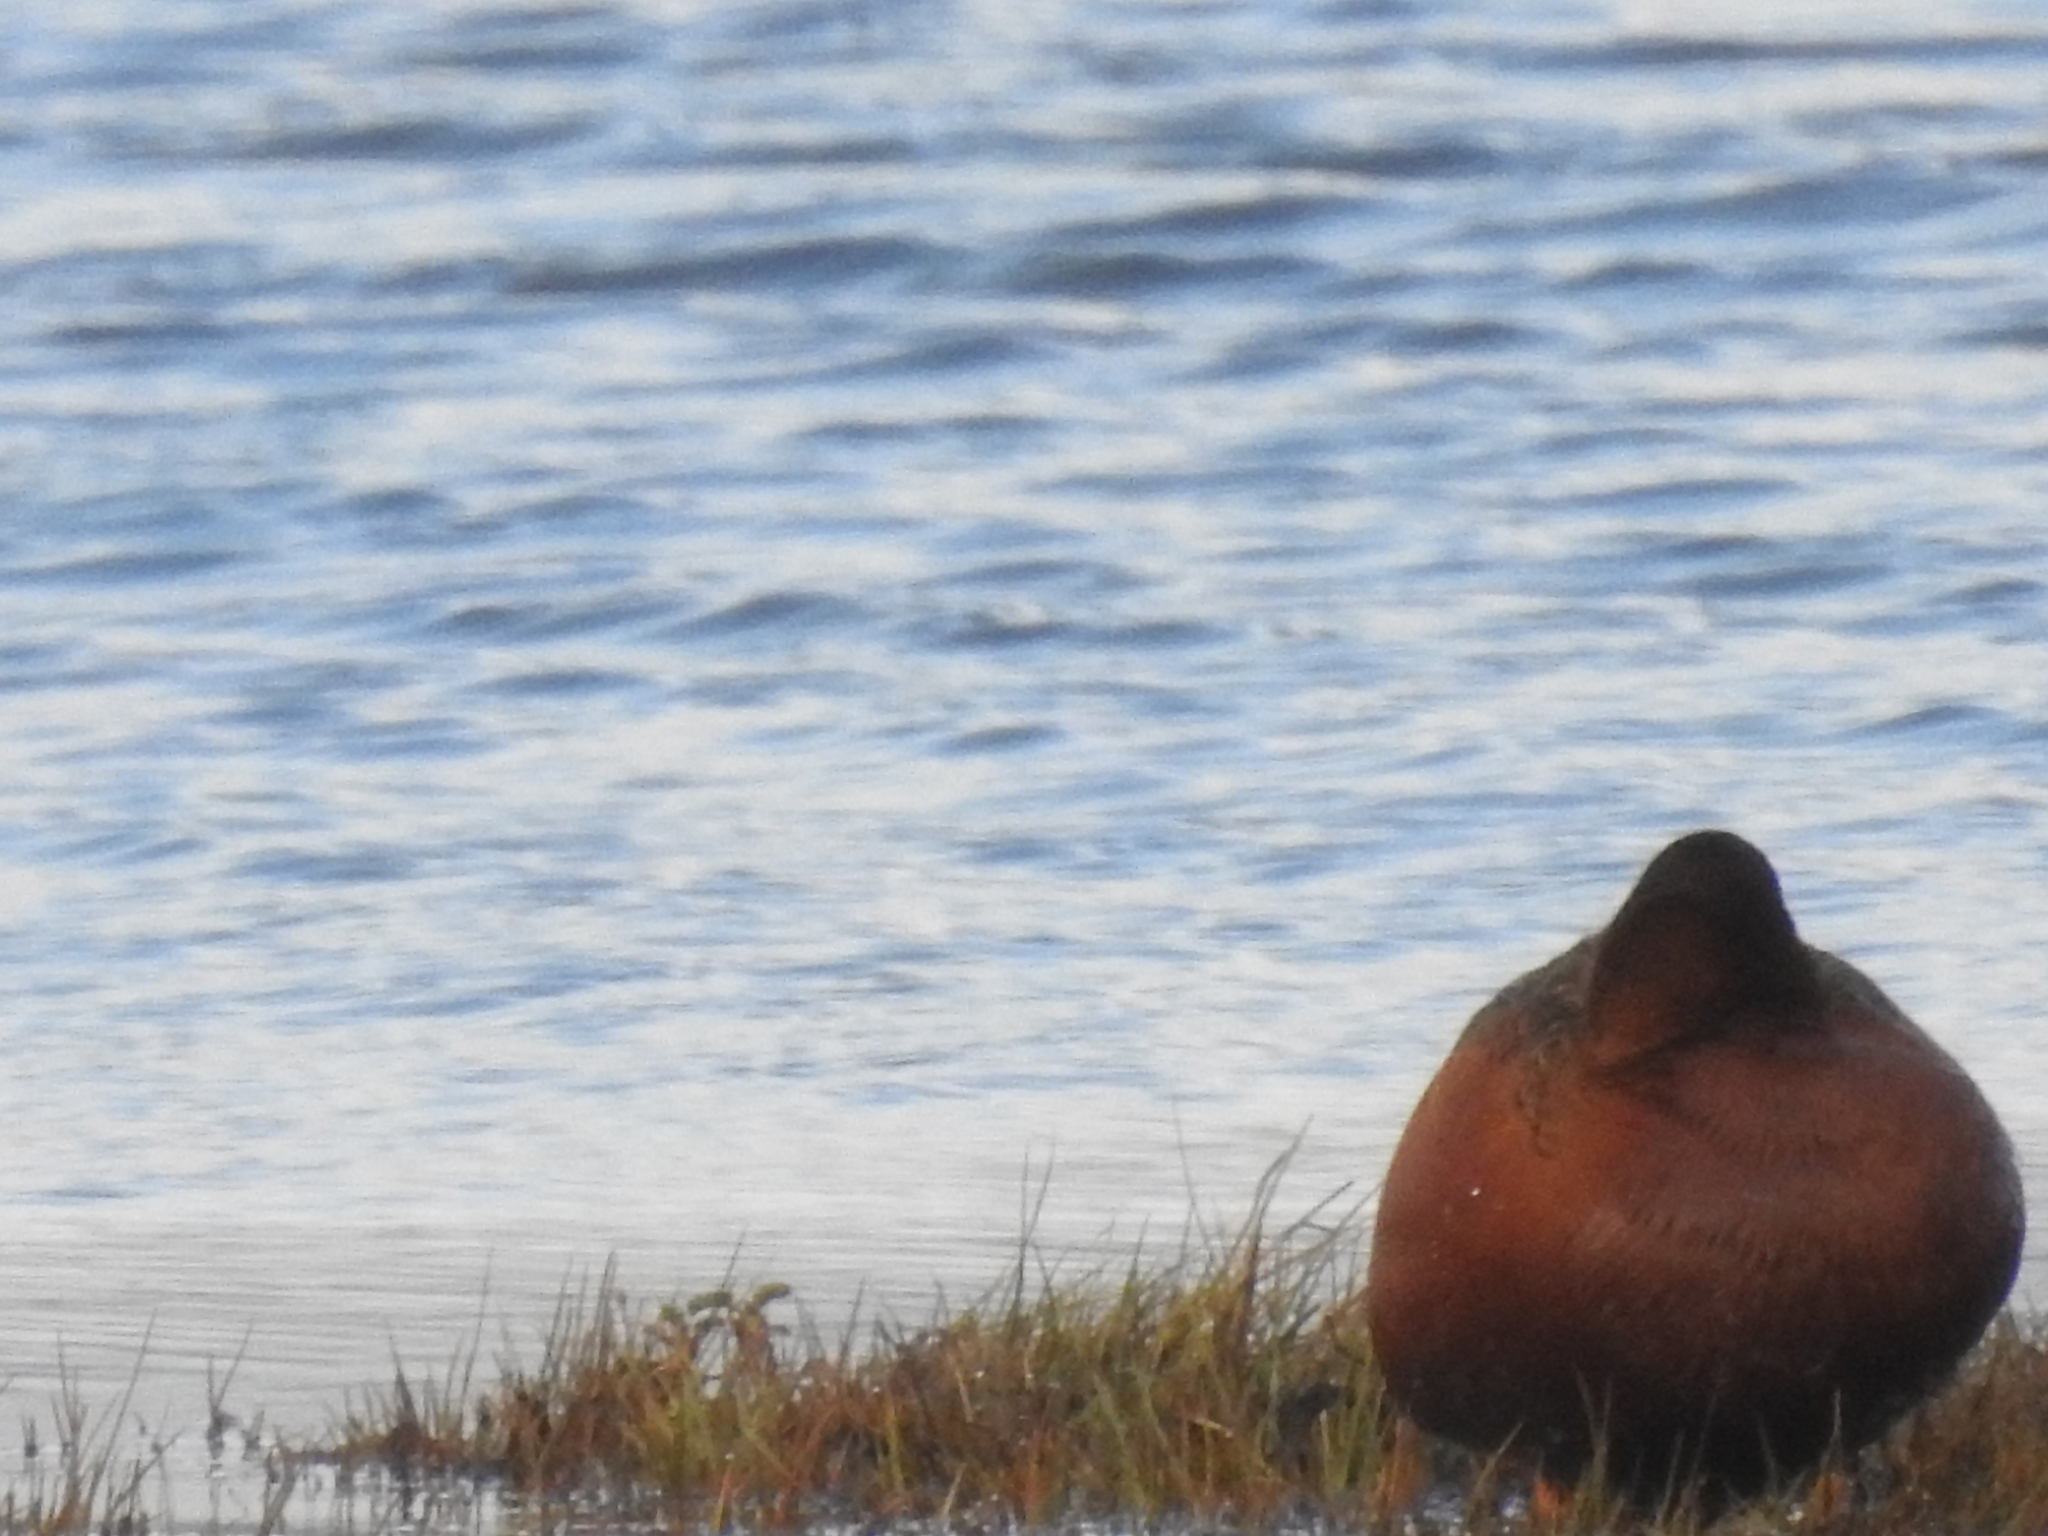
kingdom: Animalia
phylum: Chordata
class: Aves
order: Anseriformes
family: Anatidae
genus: Spatula
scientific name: Spatula cyanoptera
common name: Cinnamon teal
